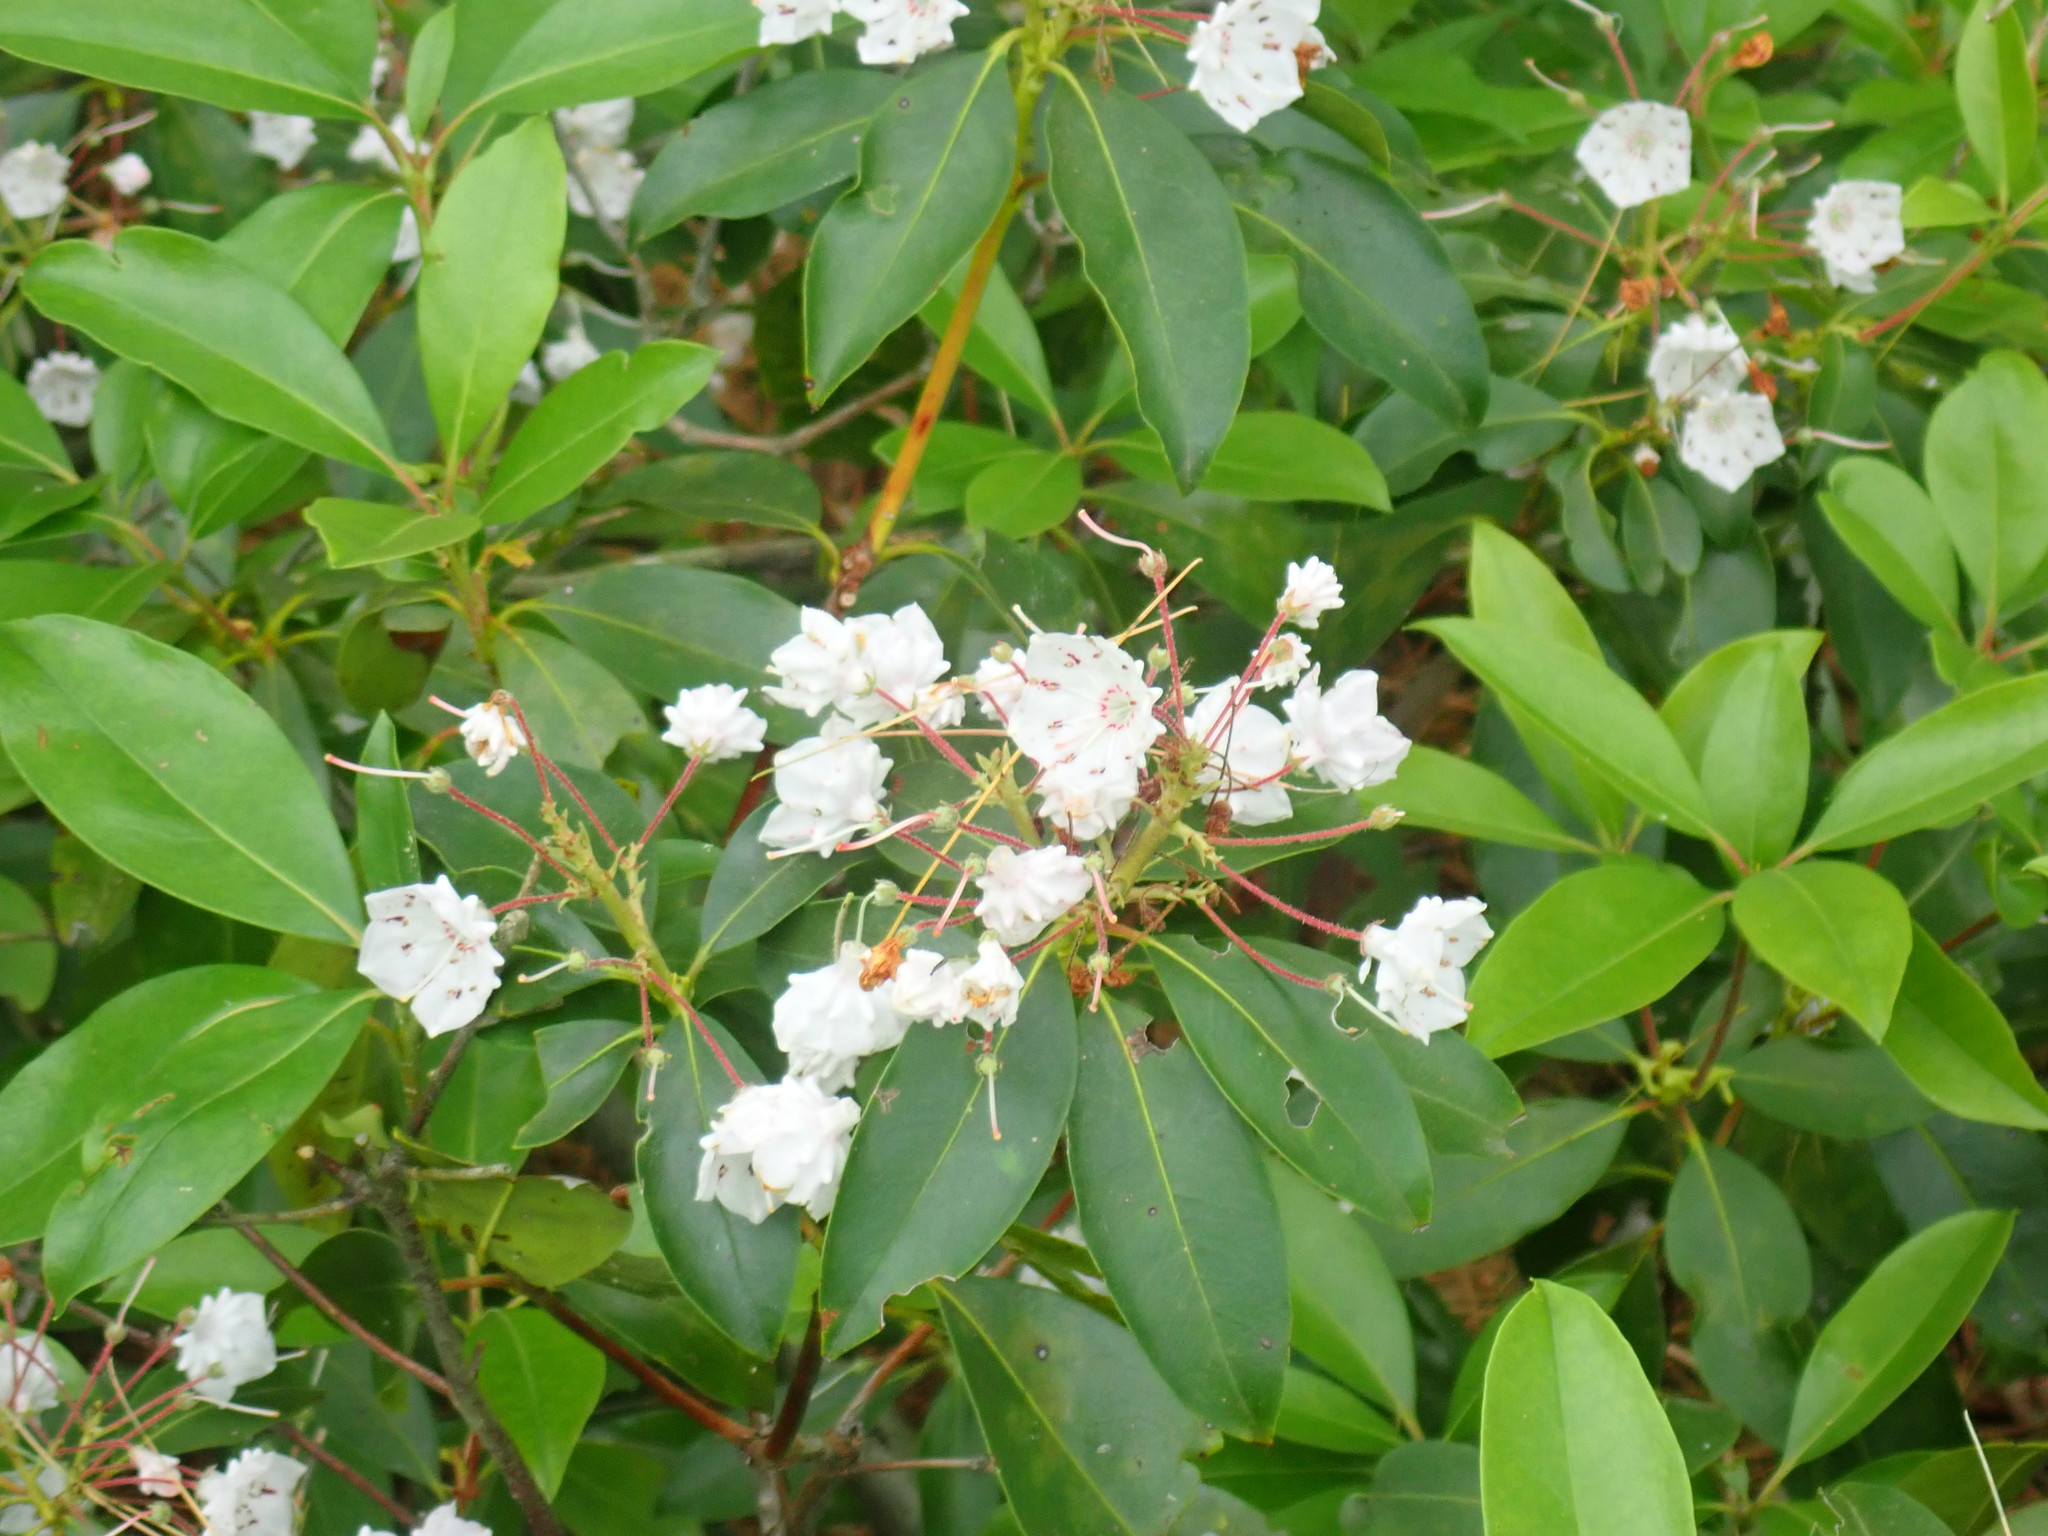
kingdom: Plantae
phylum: Tracheophyta
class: Magnoliopsida
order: Ericales
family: Ericaceae
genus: Kalmia
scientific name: Kalmia latifolia
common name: Mountain-laurel
